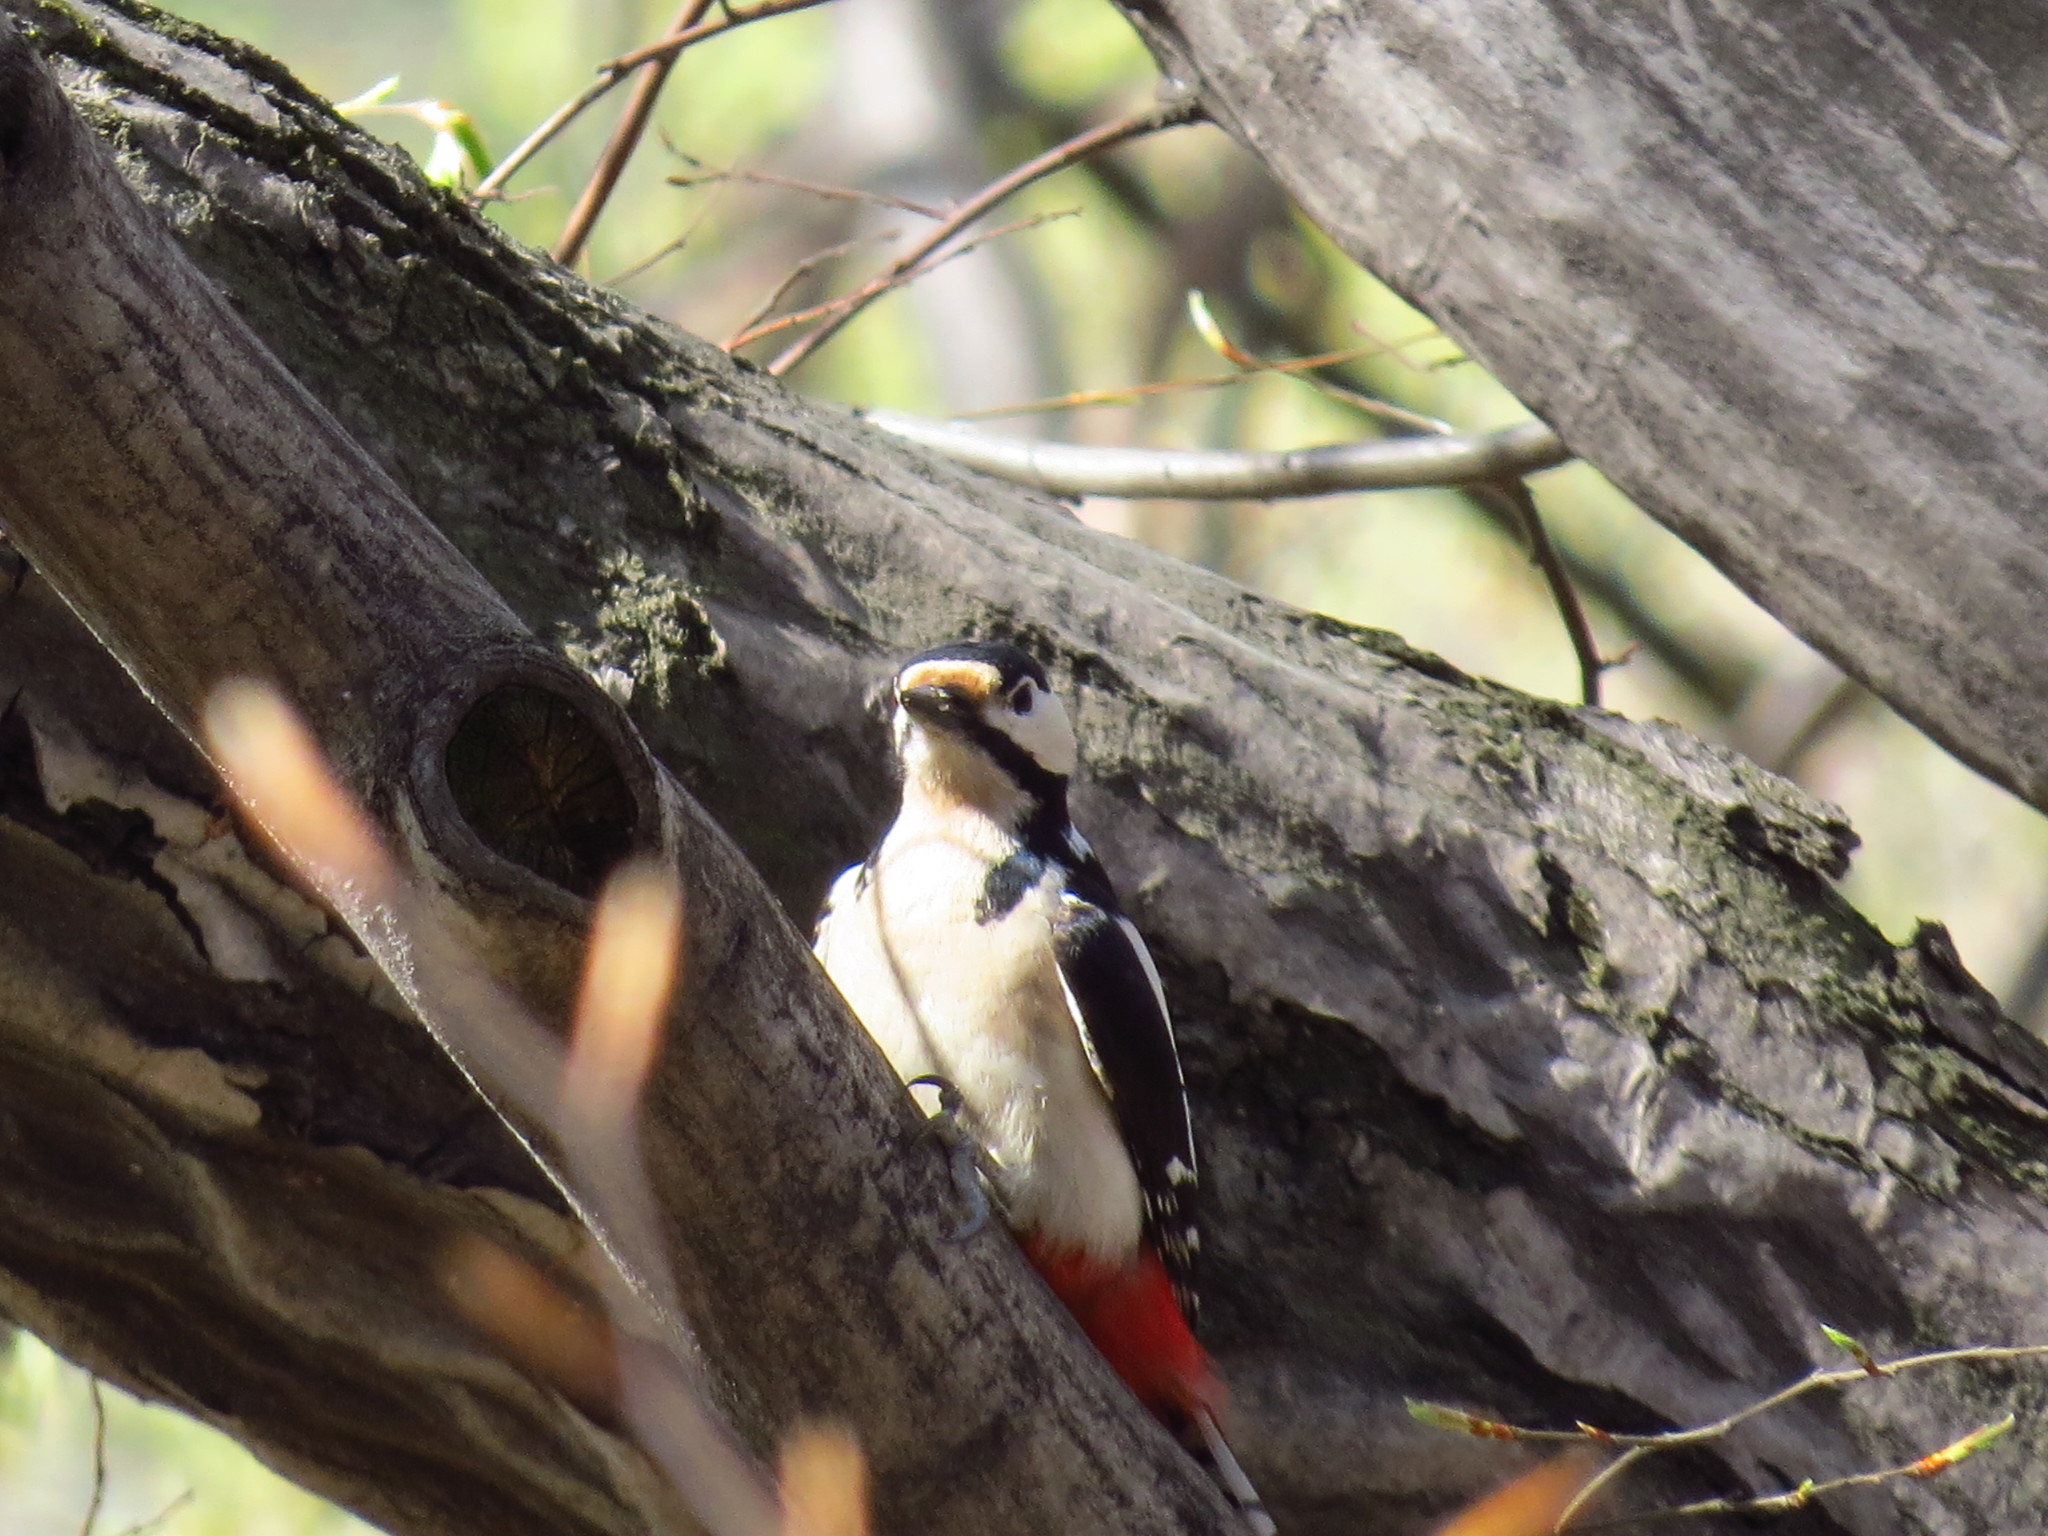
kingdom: Animalia
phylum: Chordata
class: Aves
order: Piciformes
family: Picidae
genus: Dendrocopos
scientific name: Dendrocopos major
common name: Great spotted woodpecker
